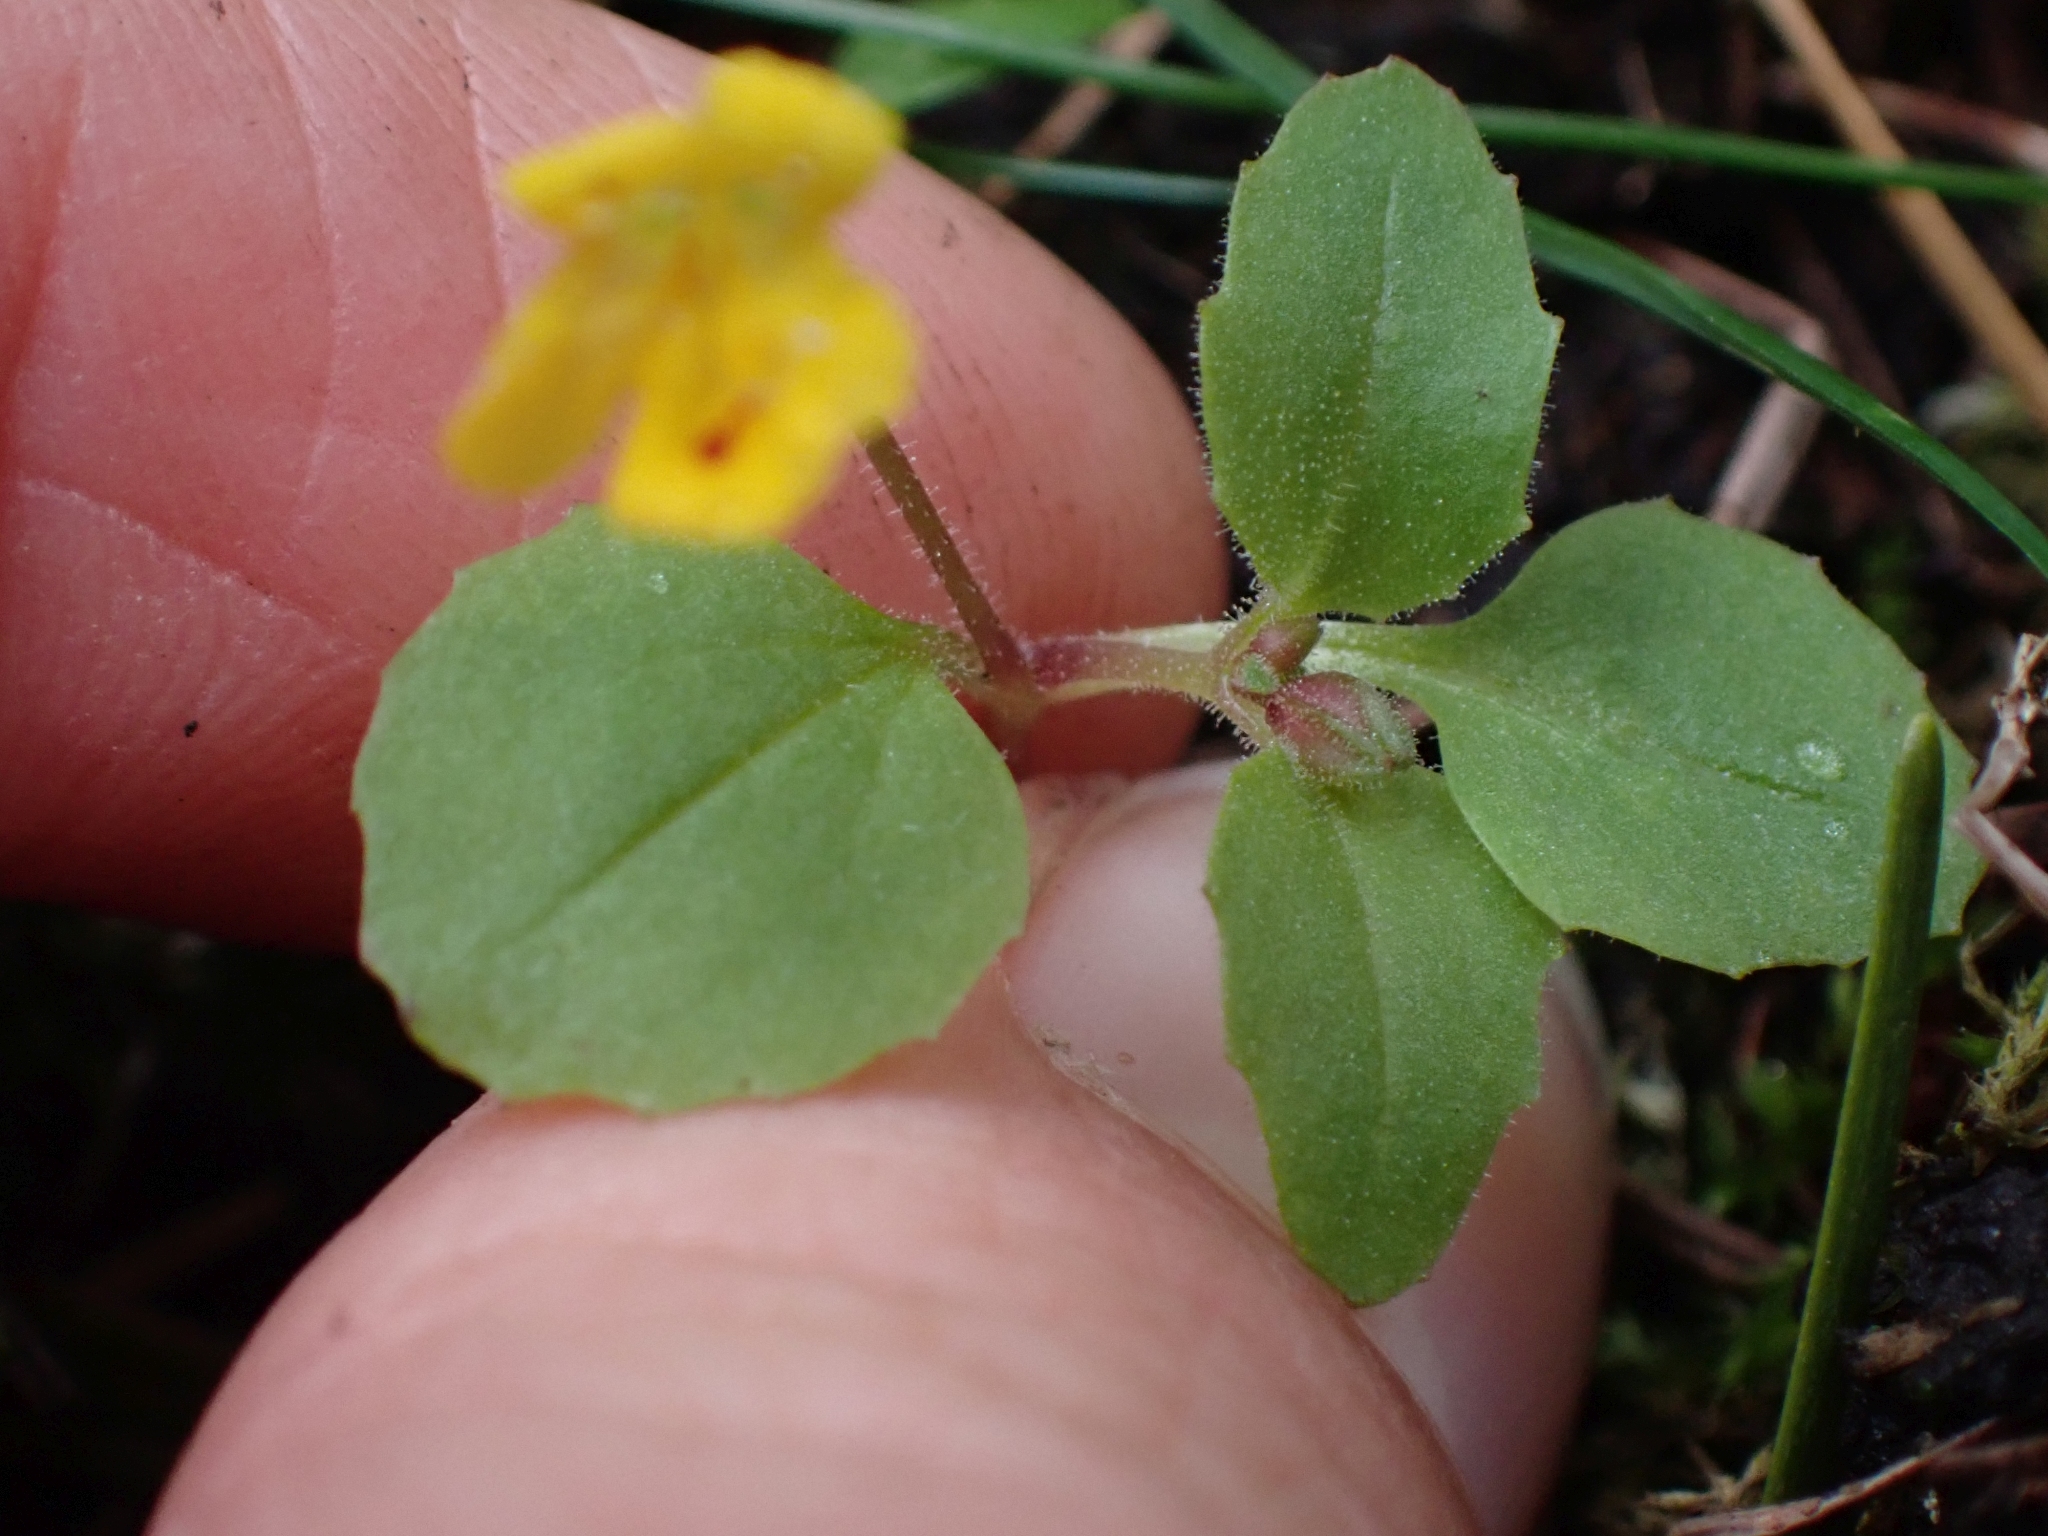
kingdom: Plantae
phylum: Tracheophyta
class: Magnoliopsida
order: Lamiales
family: Phrymaceae
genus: Erythranthe
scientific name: Erythranthe alsinoides
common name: Chickweed monkeyflower
